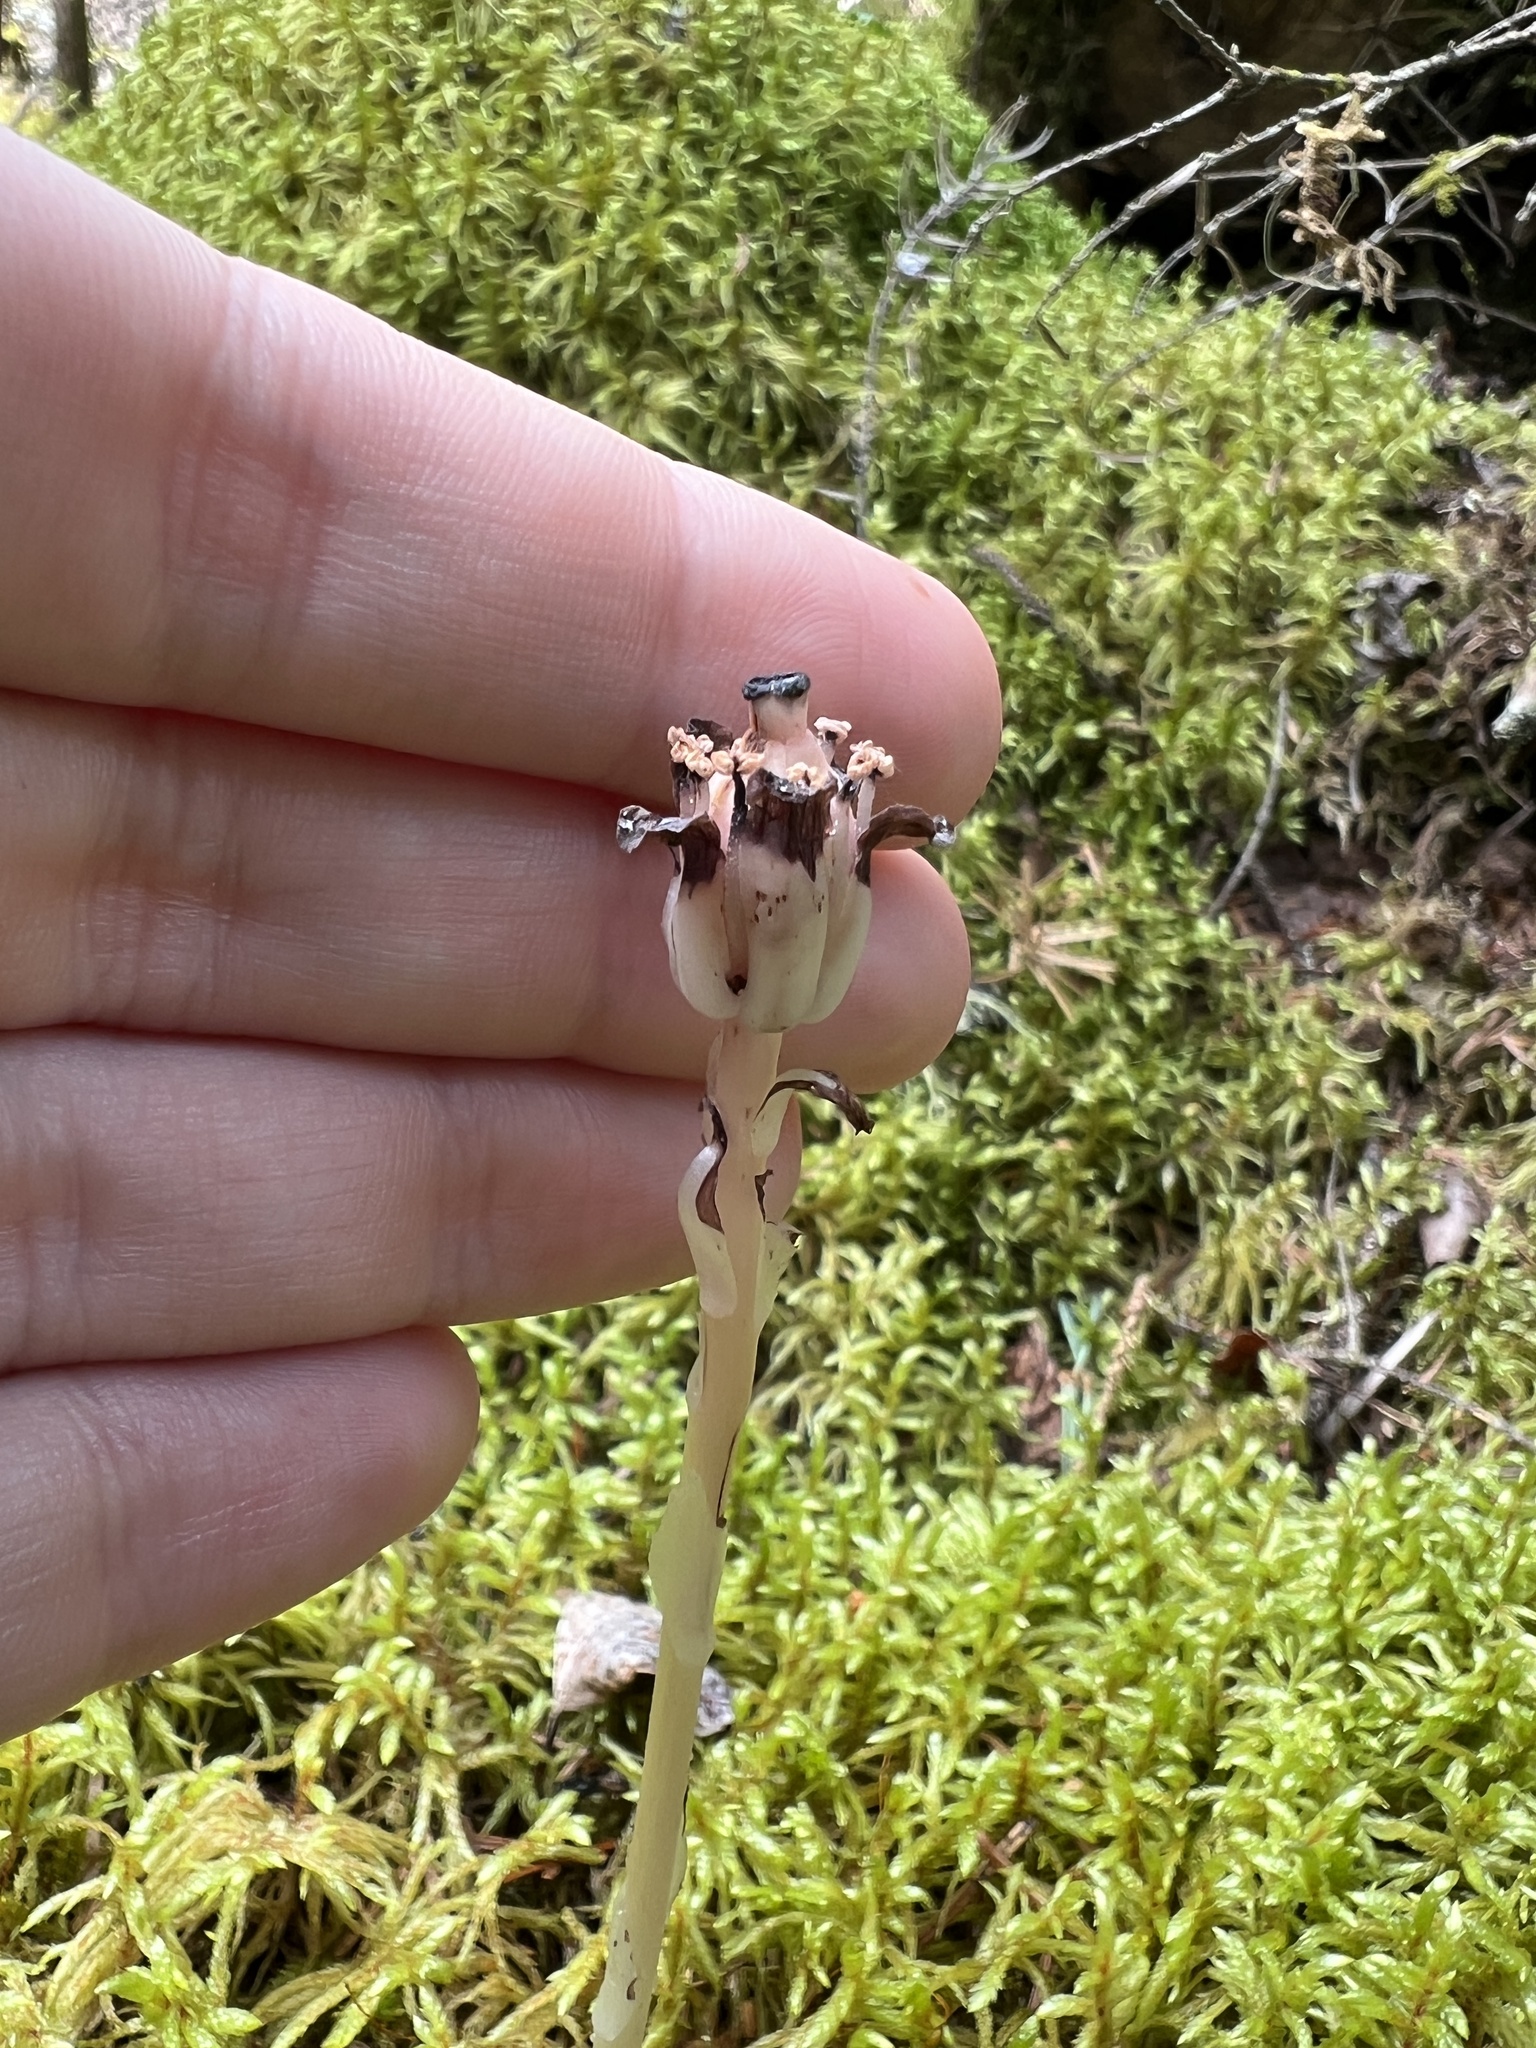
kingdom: Plantae
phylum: Tracheophyta
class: Magnoliopsida
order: Ericales
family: Ericaceae
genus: Monotropa
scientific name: Monotropa uniflora
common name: Convulsion root
